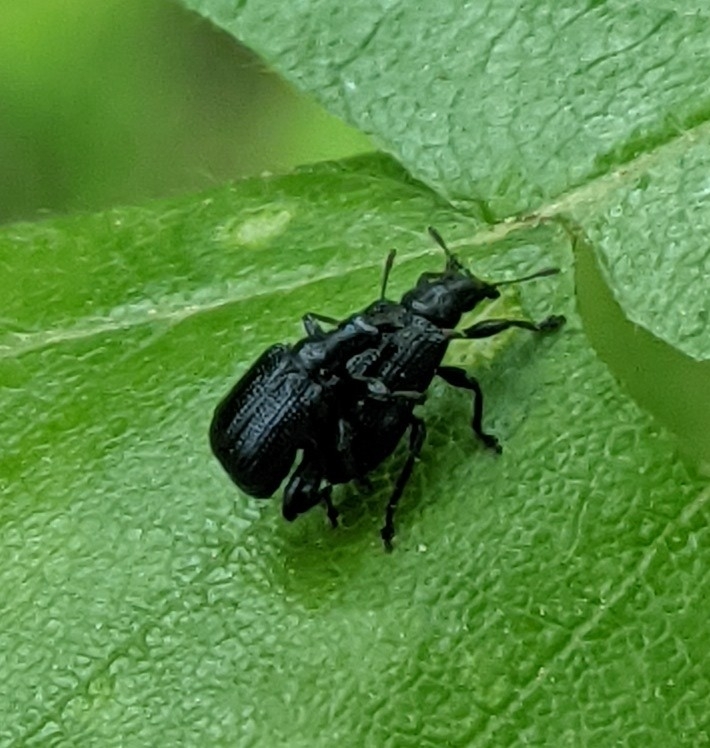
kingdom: Animalia
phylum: Arthropoda
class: Insecta
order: Coleoptera
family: Attelabidae
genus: Deporaus
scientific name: Deporaus betulae
